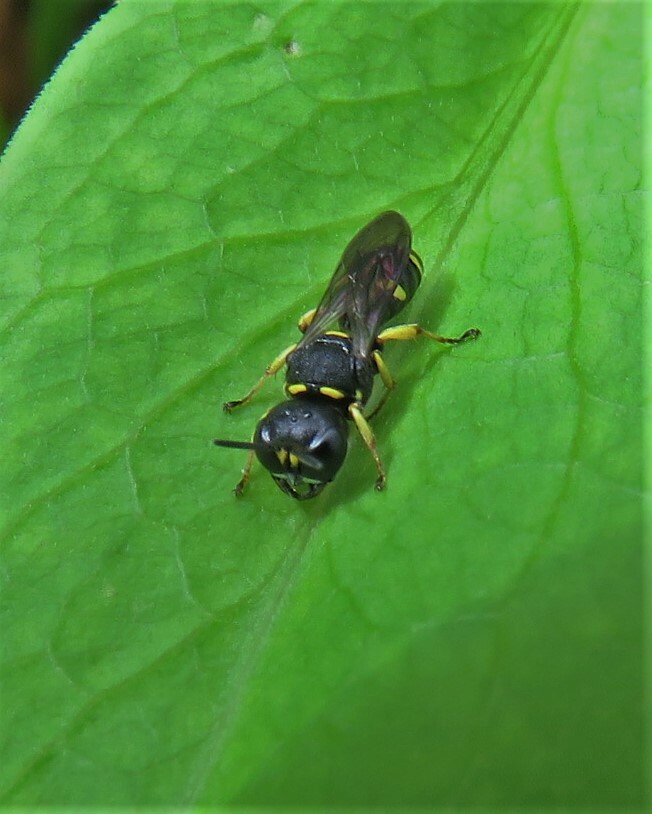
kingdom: Animalia
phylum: Arthropoda
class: Insecta
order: Hymenoptera
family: Crabronidae
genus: Ectemnius
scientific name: Ectemnius stirpicola
